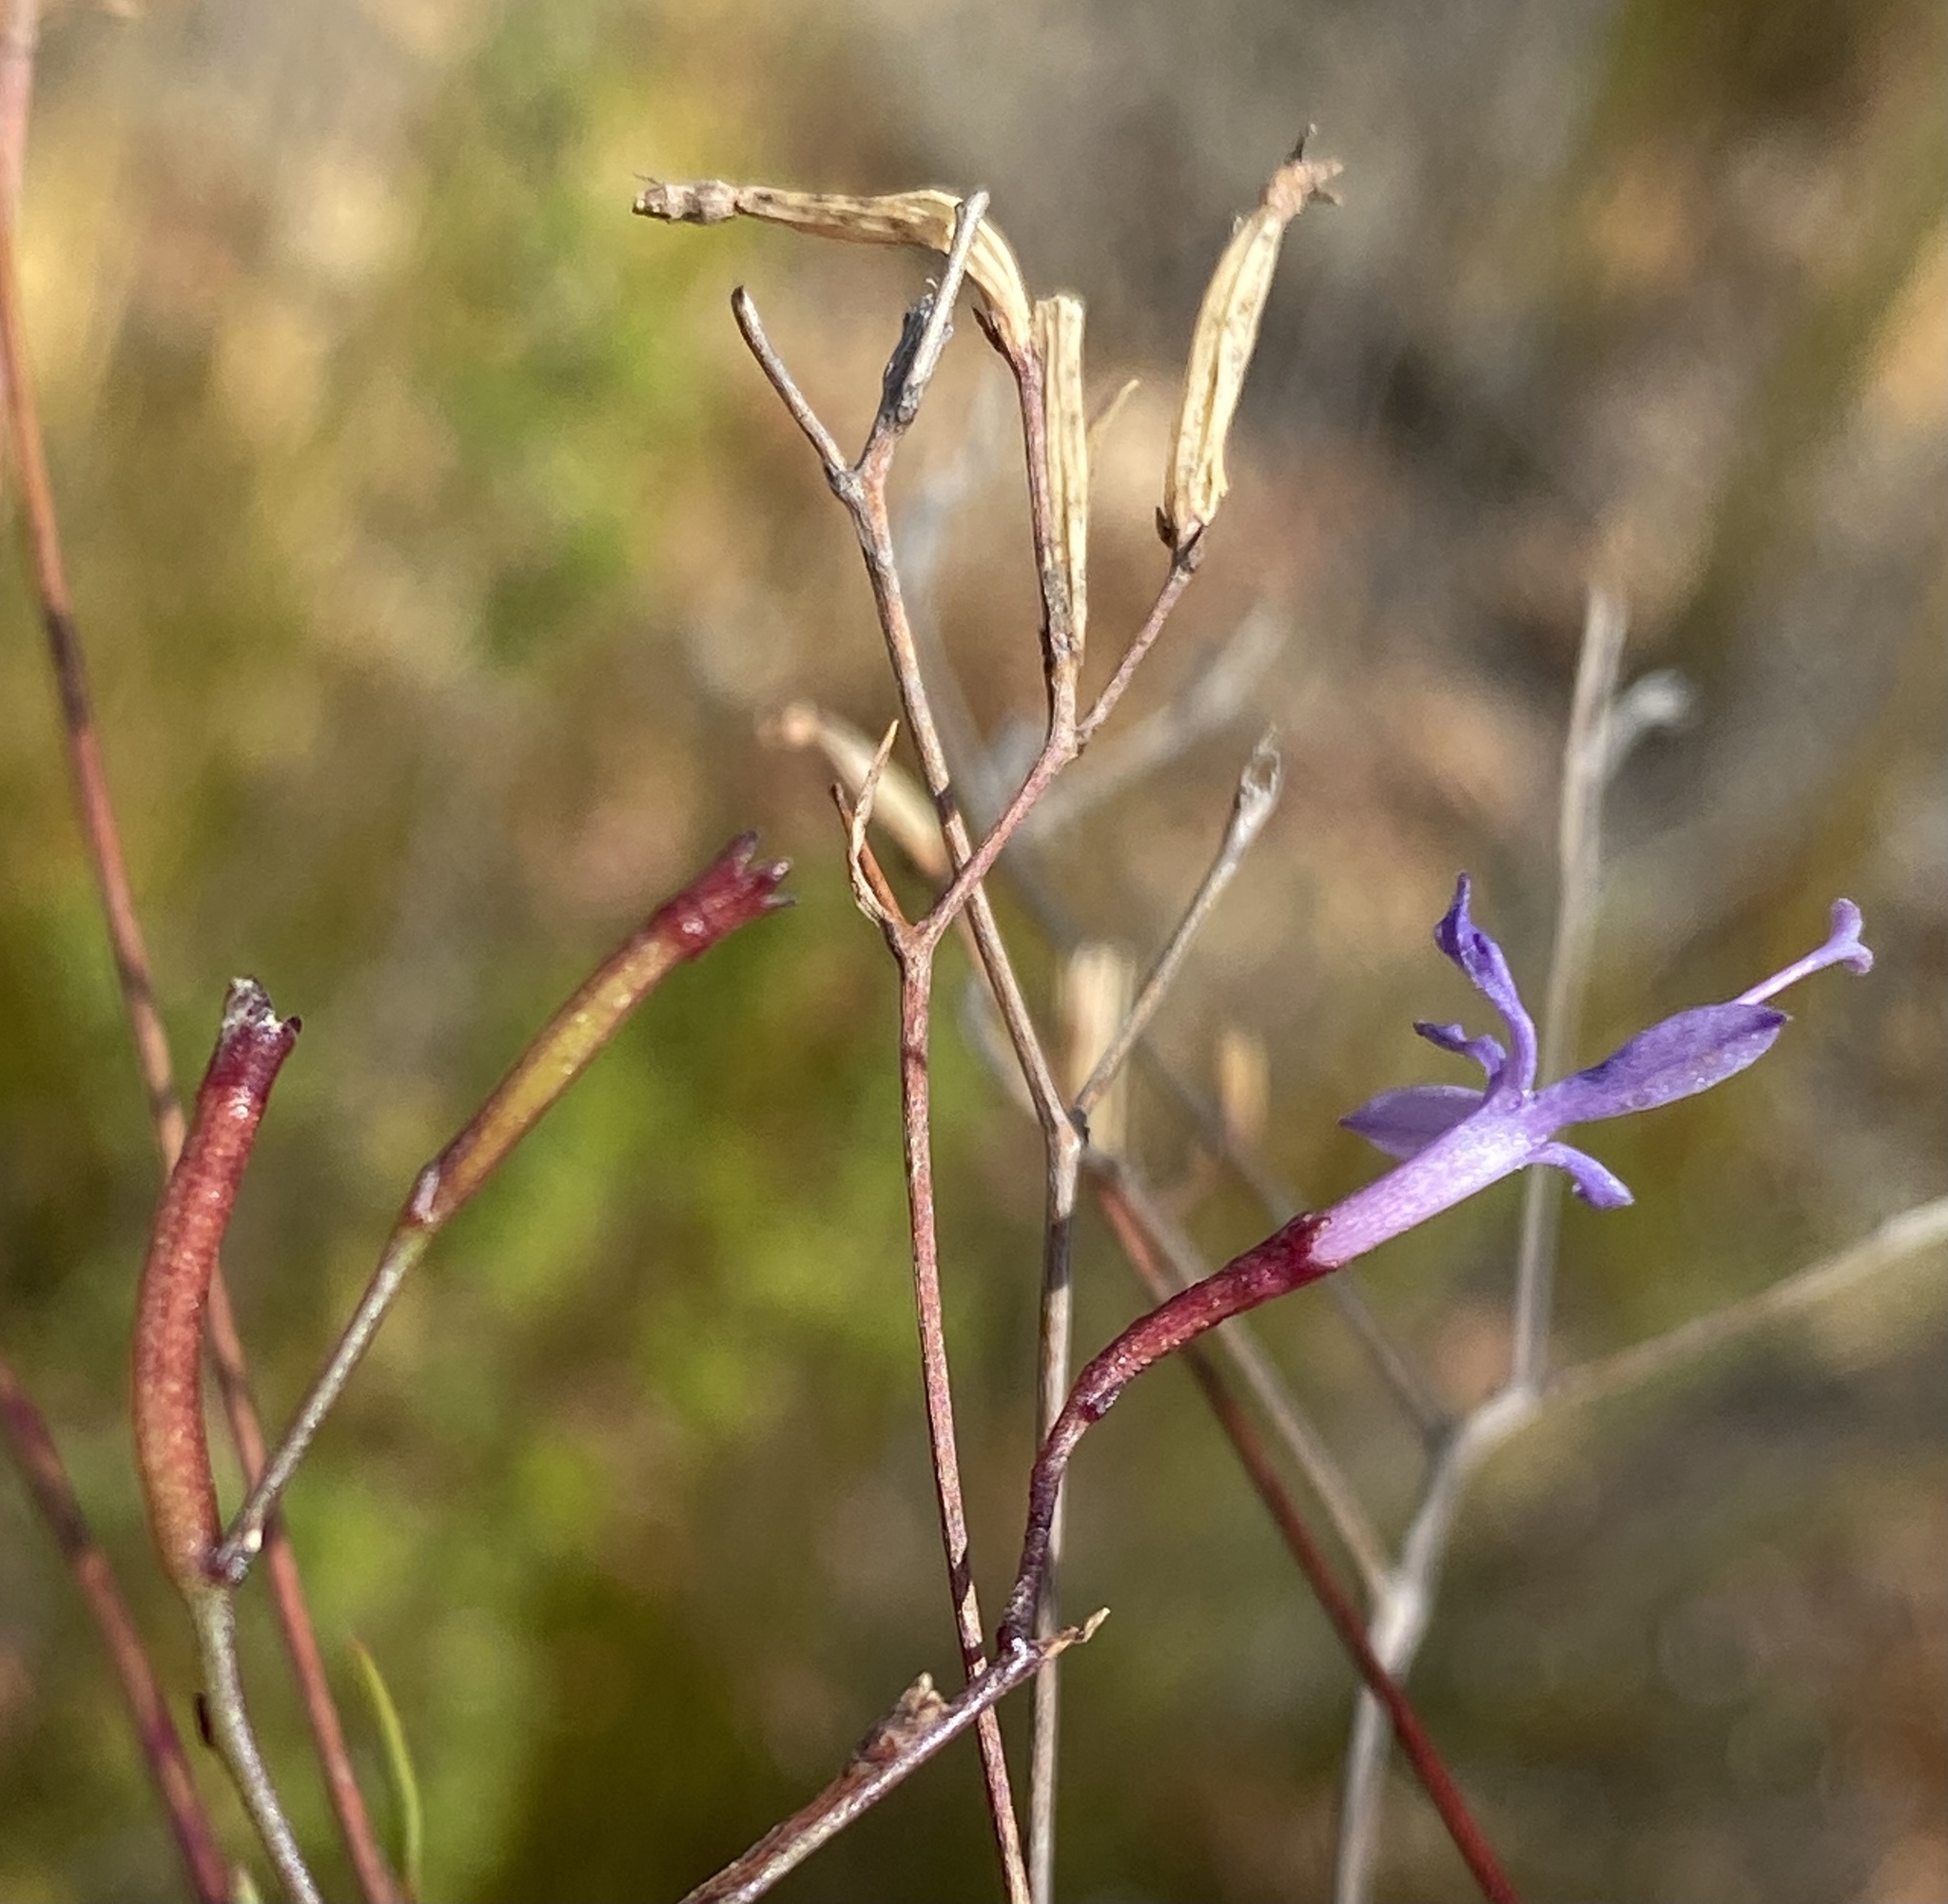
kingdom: Plantae
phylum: Tracheophyta
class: Magnoliopsida
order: Asterales
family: Campanulaceae
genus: Prismatocarpus
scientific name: Prismatocarpus diffusus
